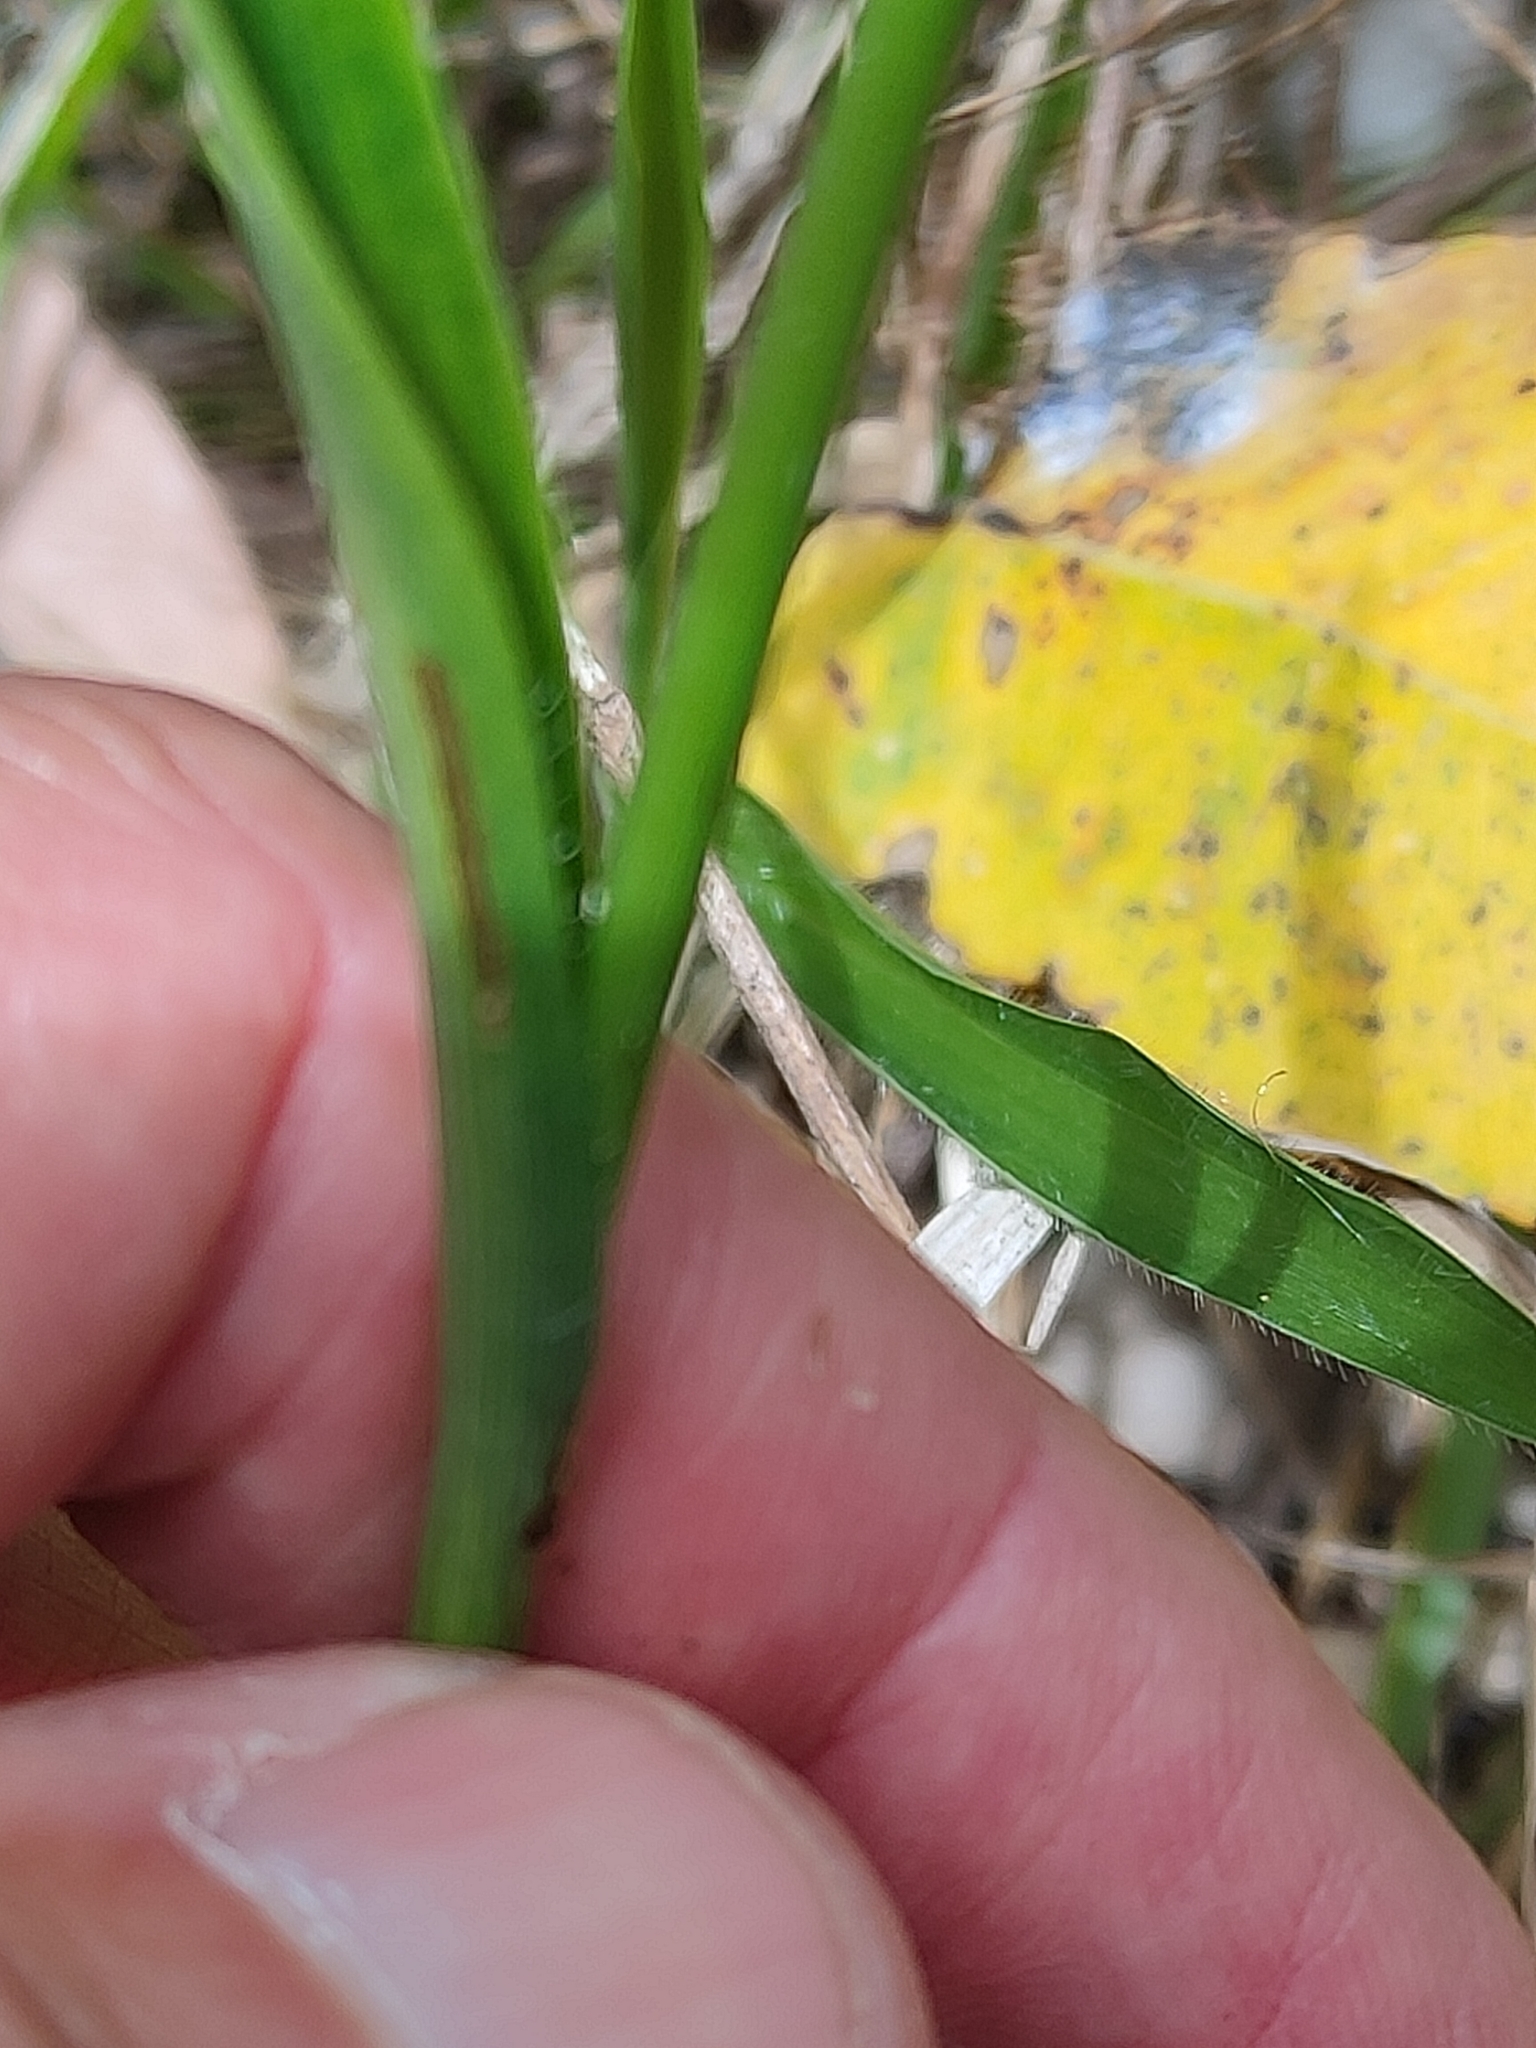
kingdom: Plantae
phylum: Tracheophyta
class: Liliopsida
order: Commelinales
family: Commelinaceae
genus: Murdannia
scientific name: Murdannia graminea
